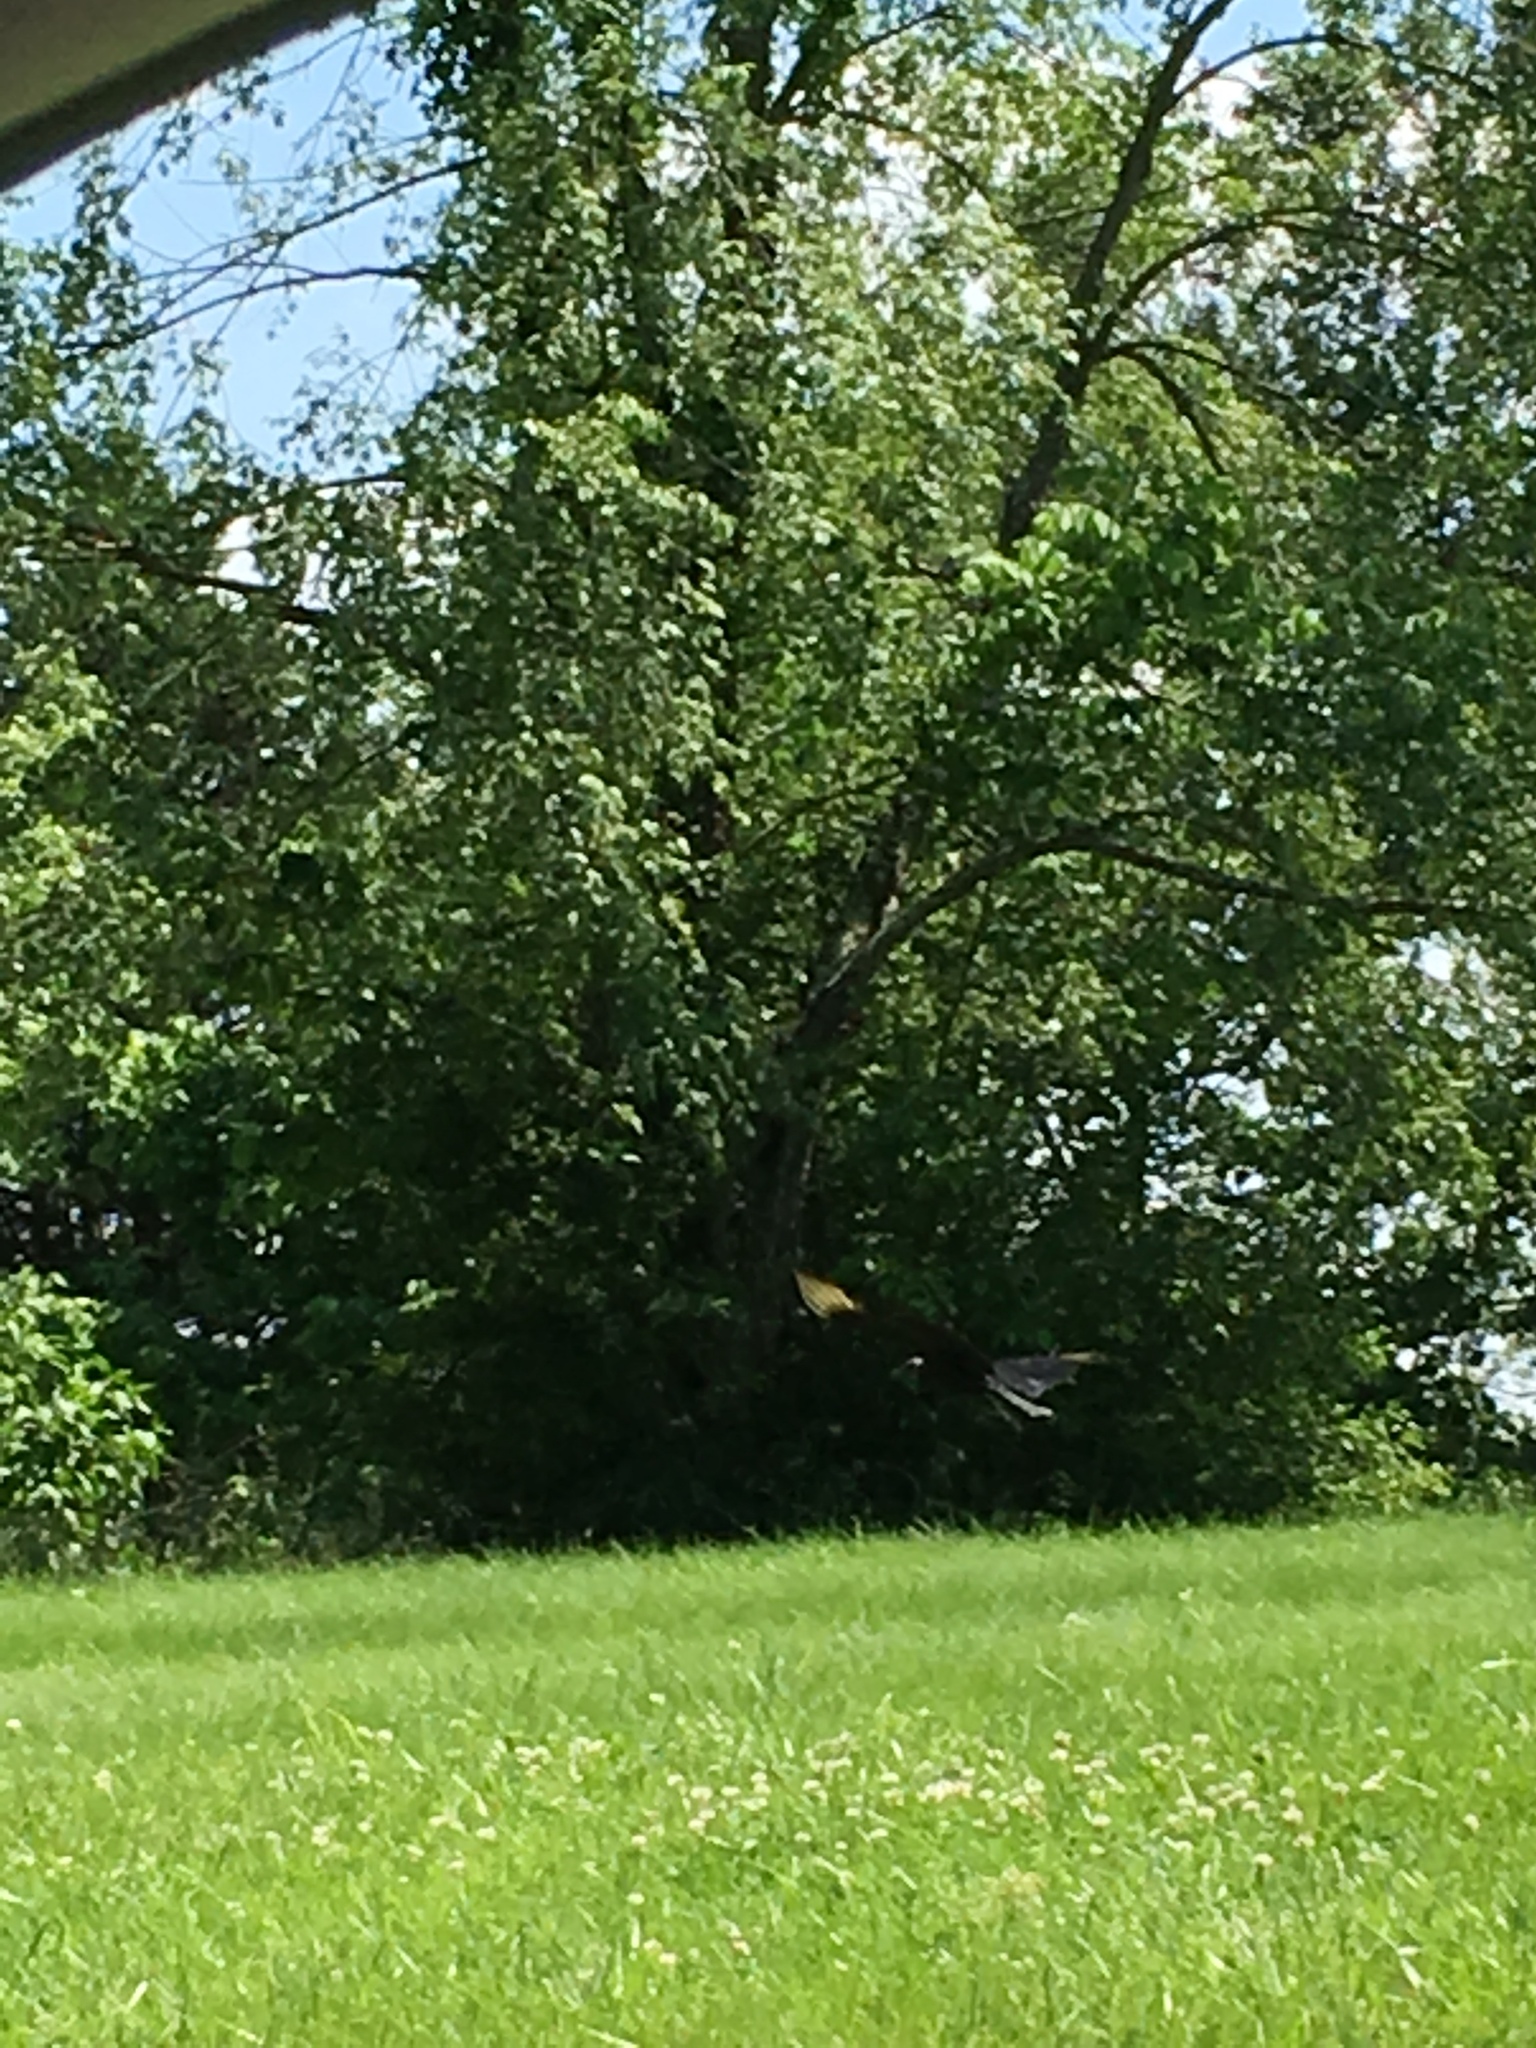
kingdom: Animalia
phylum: Chordata
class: Aves
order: Accipitriformes
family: Cathartidae
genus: Coragyps
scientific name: Coragyps atratus
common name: Black vulture
